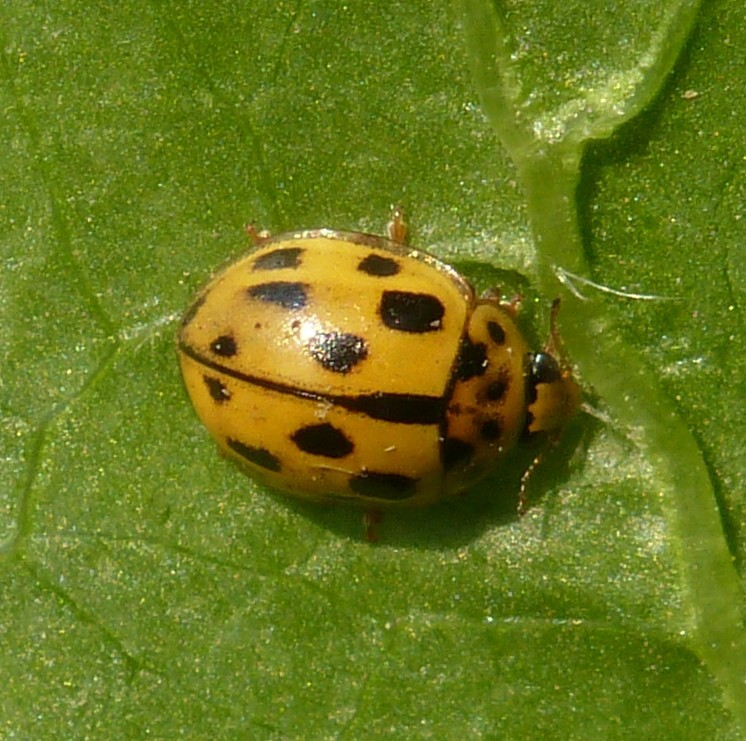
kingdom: Animalia
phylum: Arthropoda
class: Insecta
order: Coleoptera
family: Coccinellidae
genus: Propylaea
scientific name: Propylaea quatuordecimpunctata
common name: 14-spotted ladybird beetle
